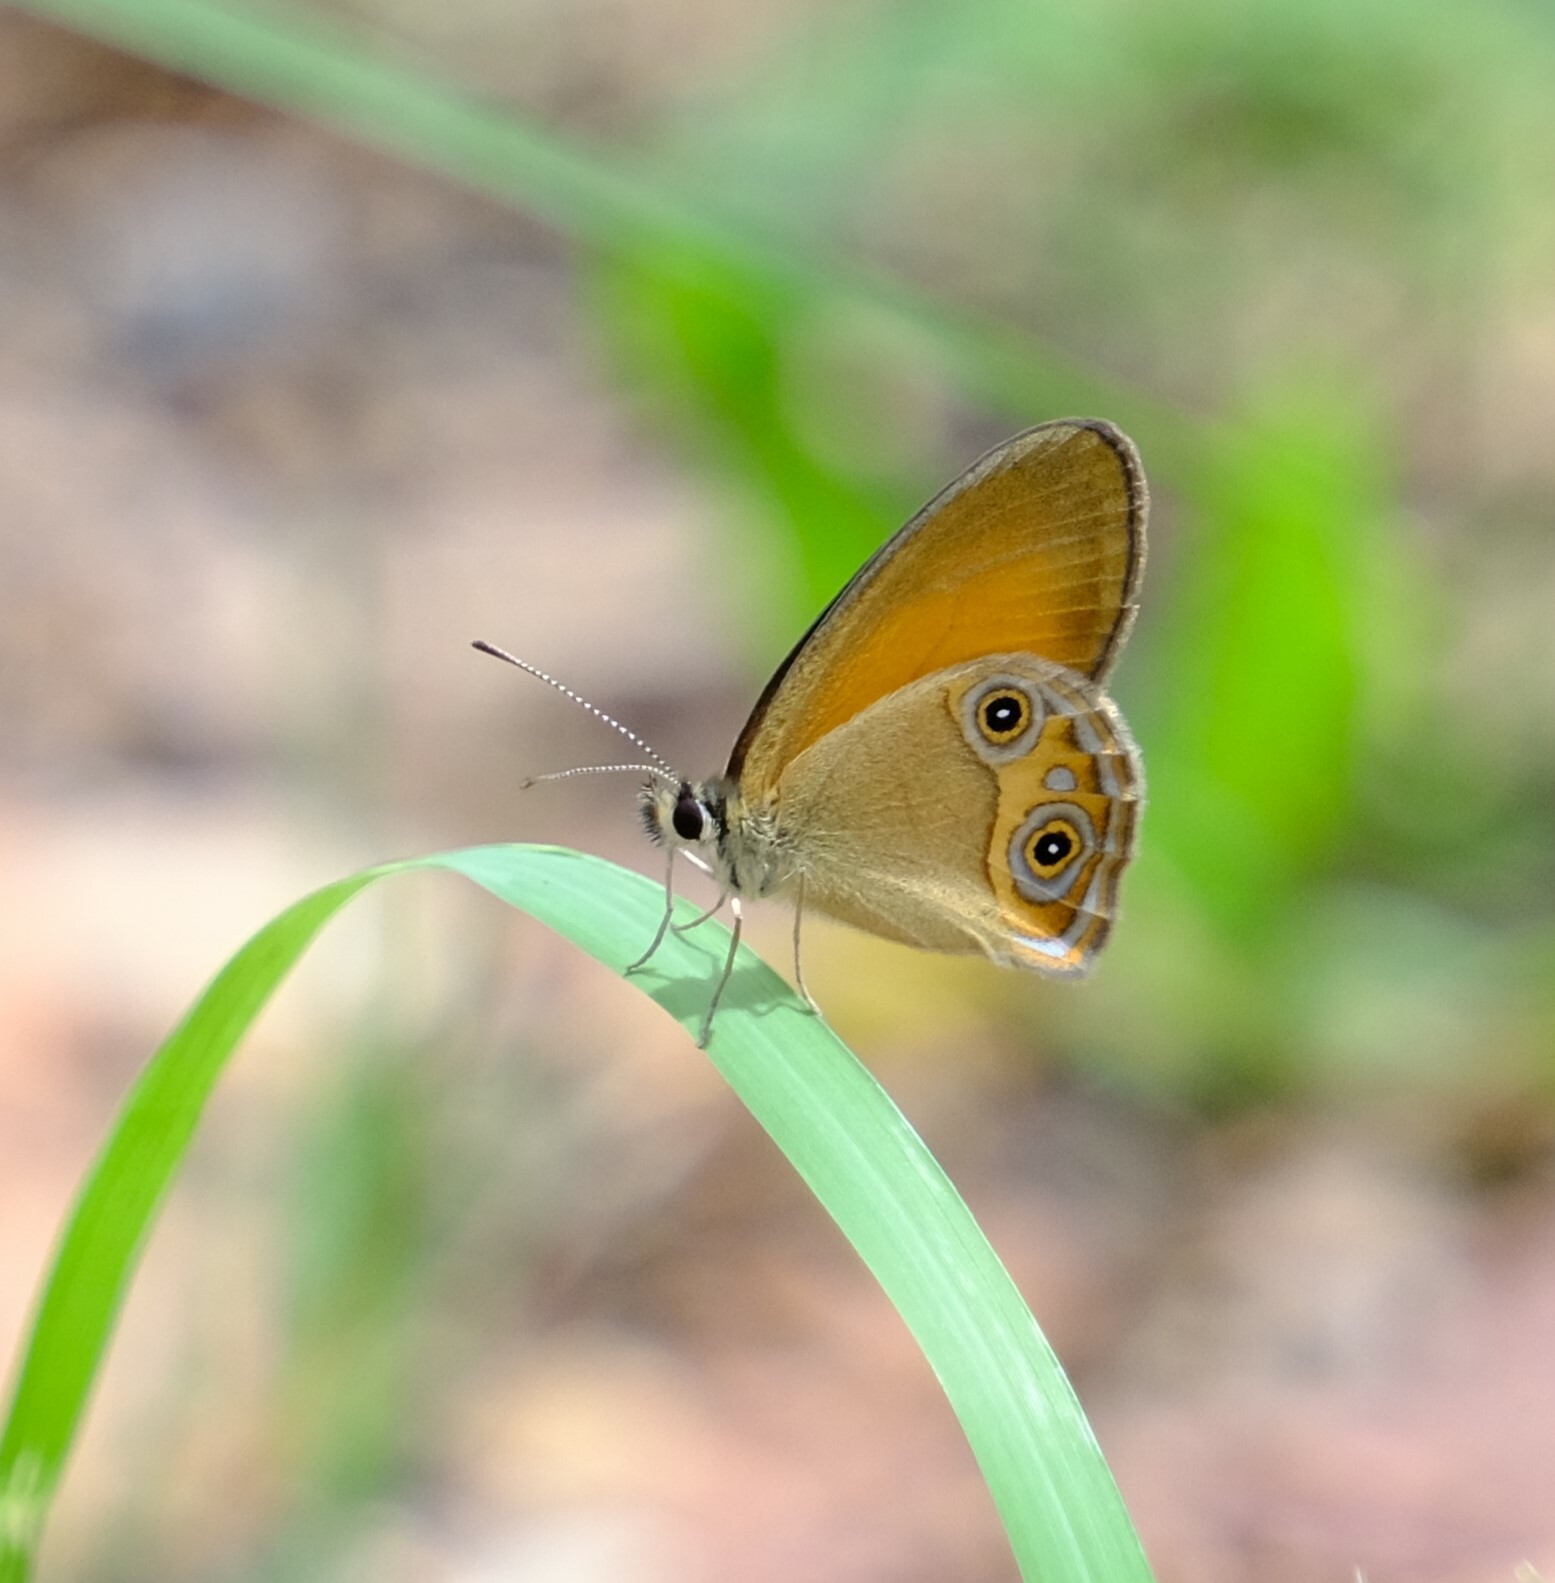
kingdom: Animalia
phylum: Arthropoda
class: Insecta
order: Lepidoptera
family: Nymphalidae
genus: Hypocysta
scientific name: Hypocysta adiante
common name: Orange ringlet
